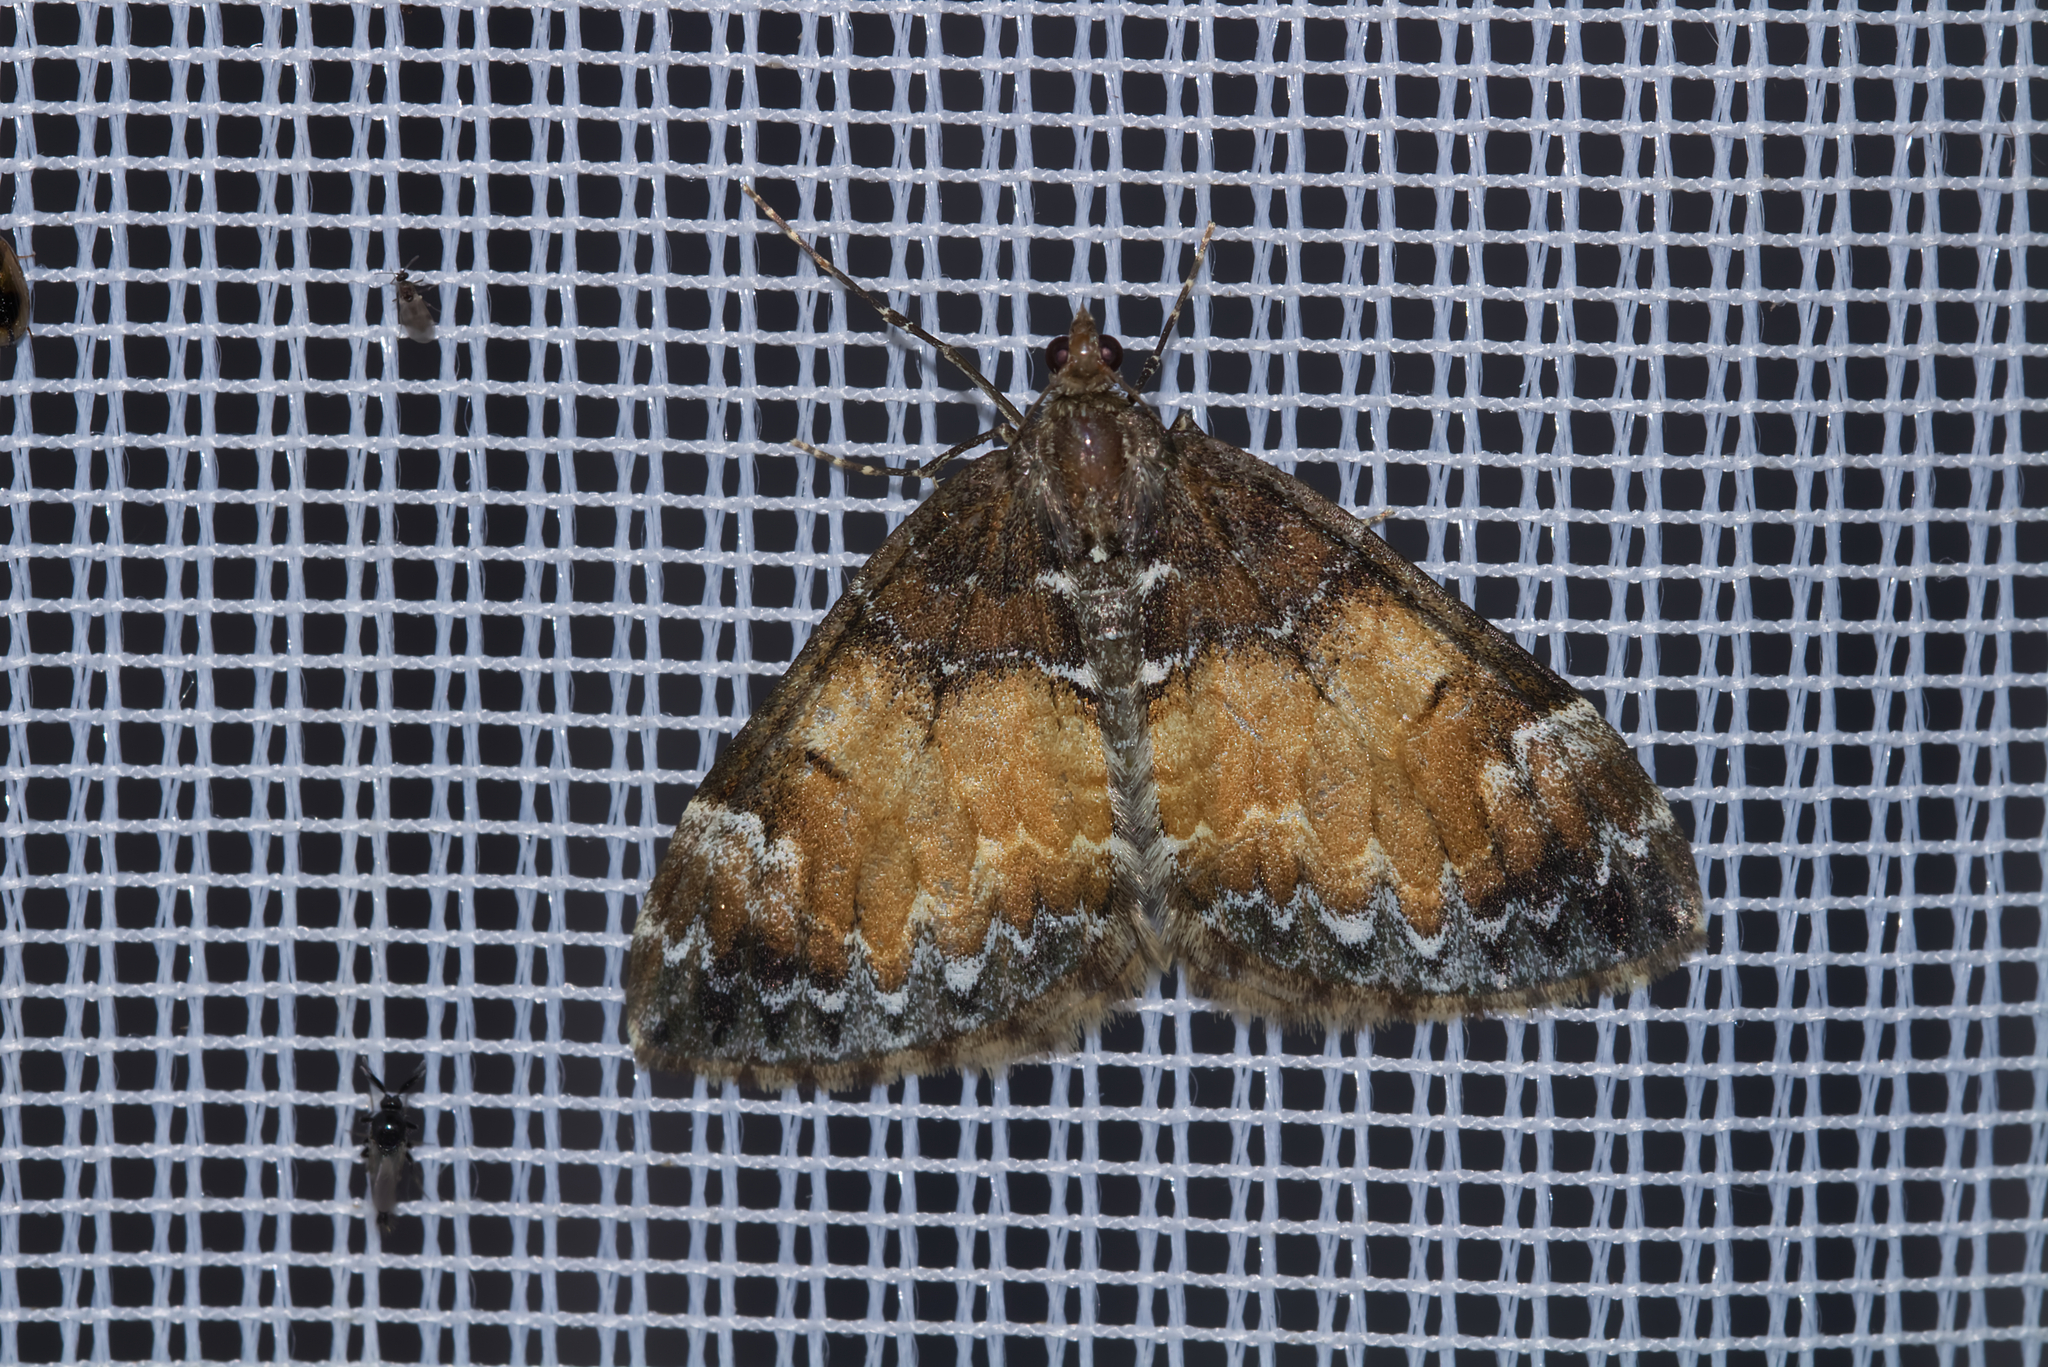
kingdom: Animalia
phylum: Arthropoda
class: Insecta
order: Lepidoptera
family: Geometridae
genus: Dysstroma
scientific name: Dysstroma truncata
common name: Common marbled carpet
